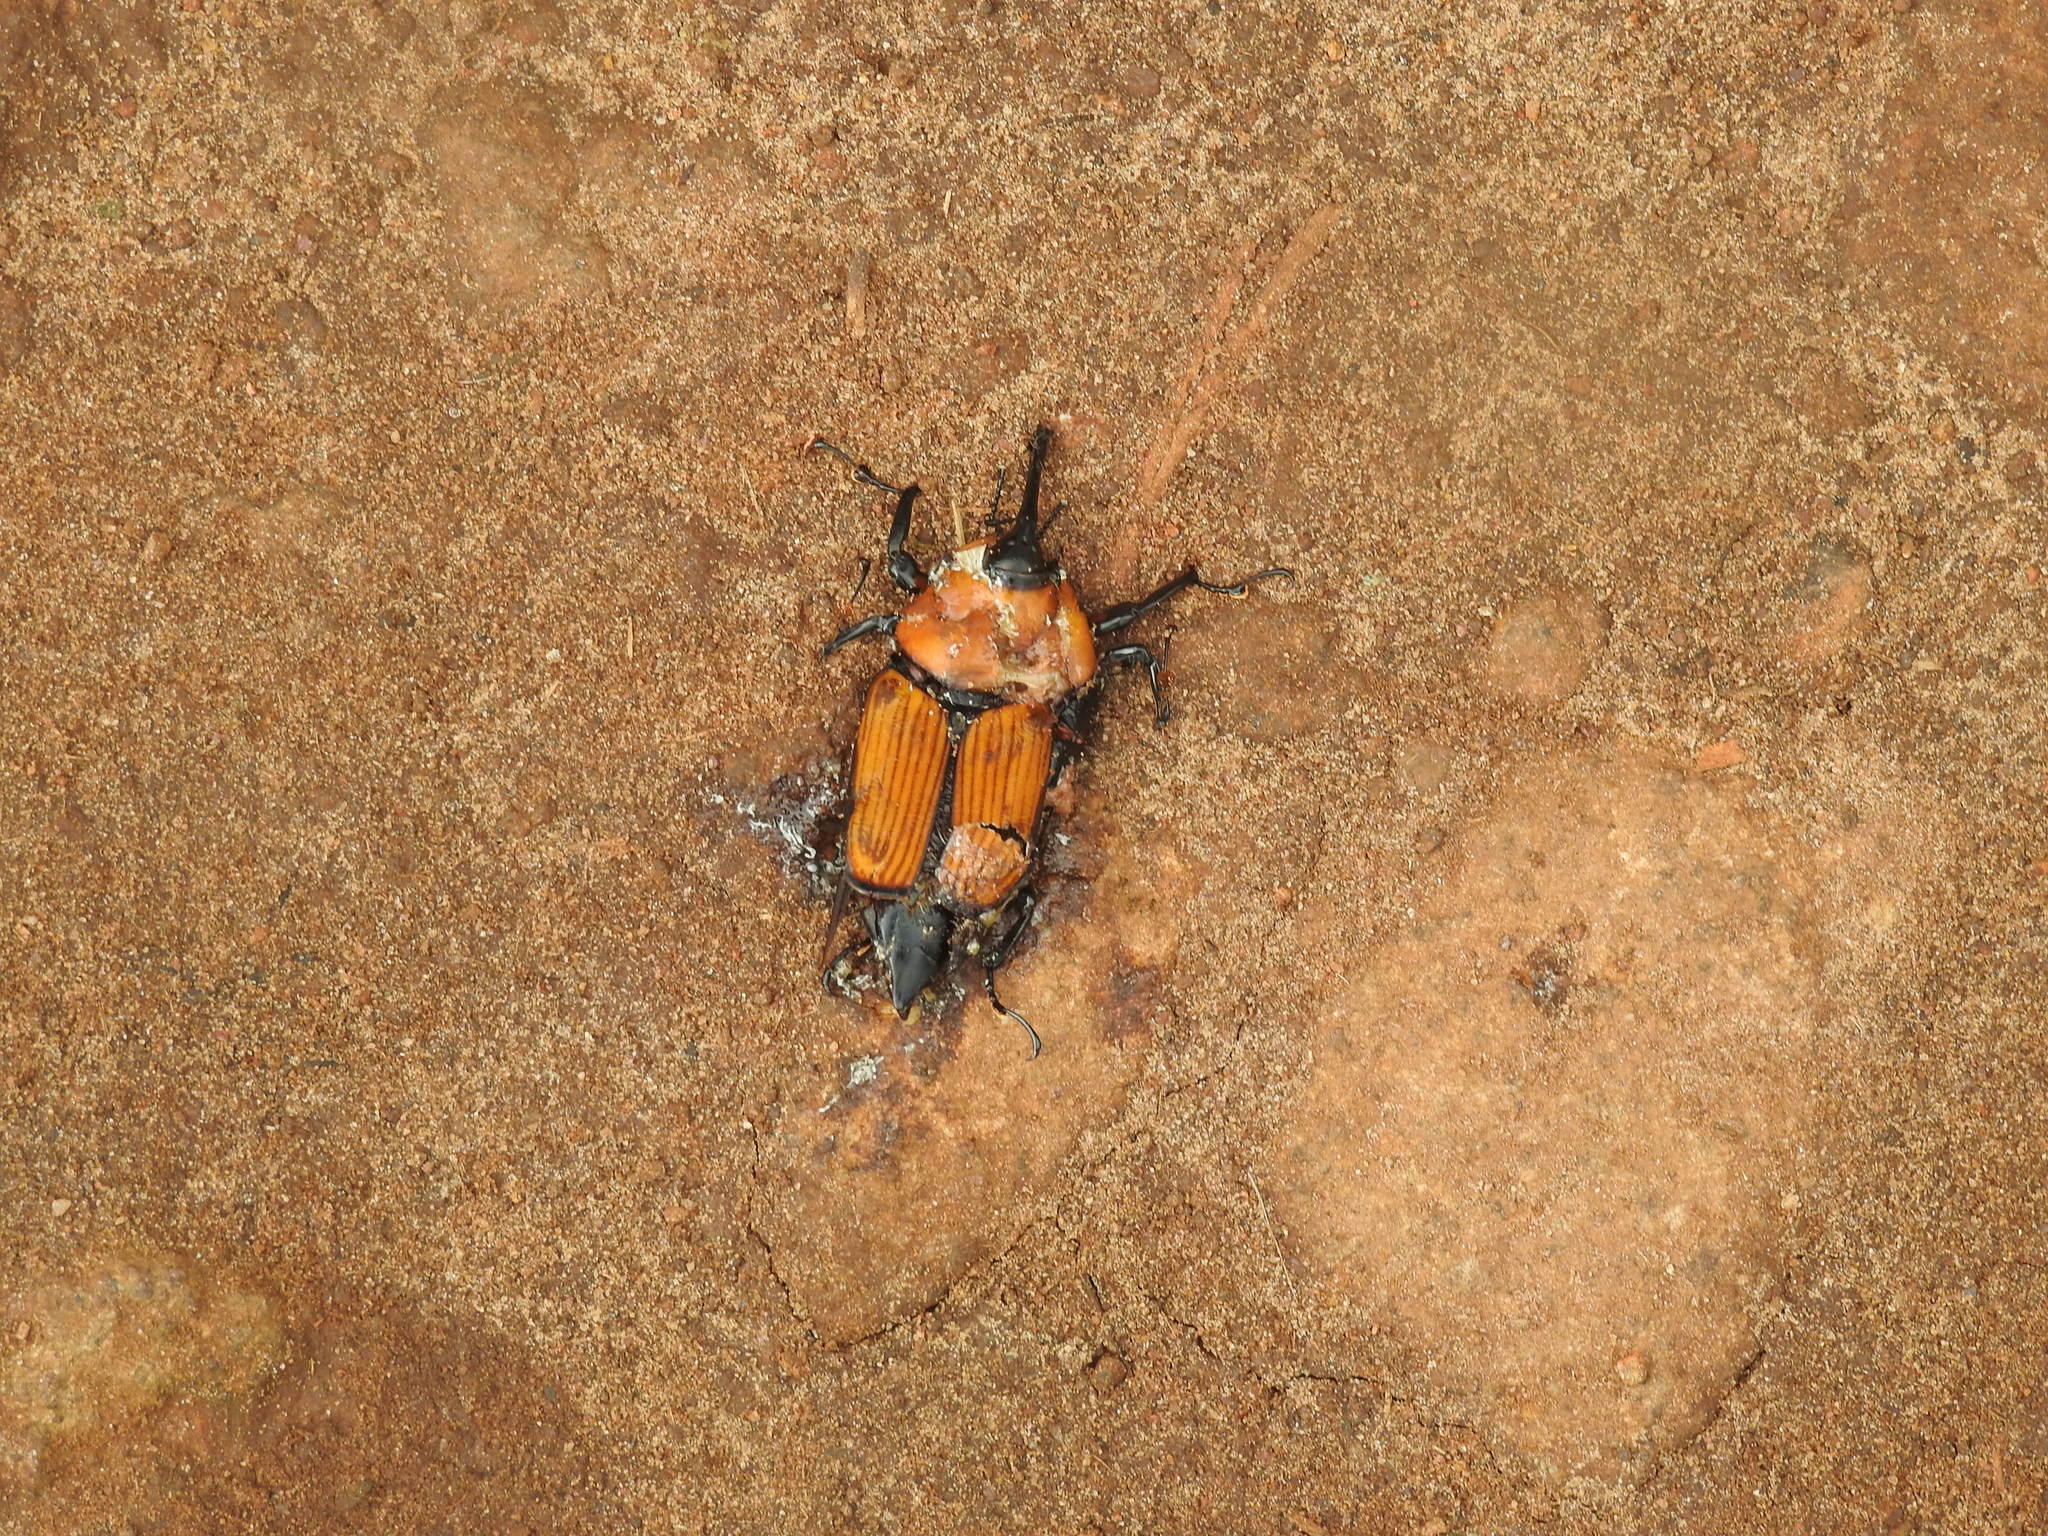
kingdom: Animalia
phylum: Arthropoda
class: Insecta
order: Coleoptera
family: Dryophthoridae
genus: Rhynchophorus
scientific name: Rhynchophorus ferrugineus
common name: Red palm weevil
